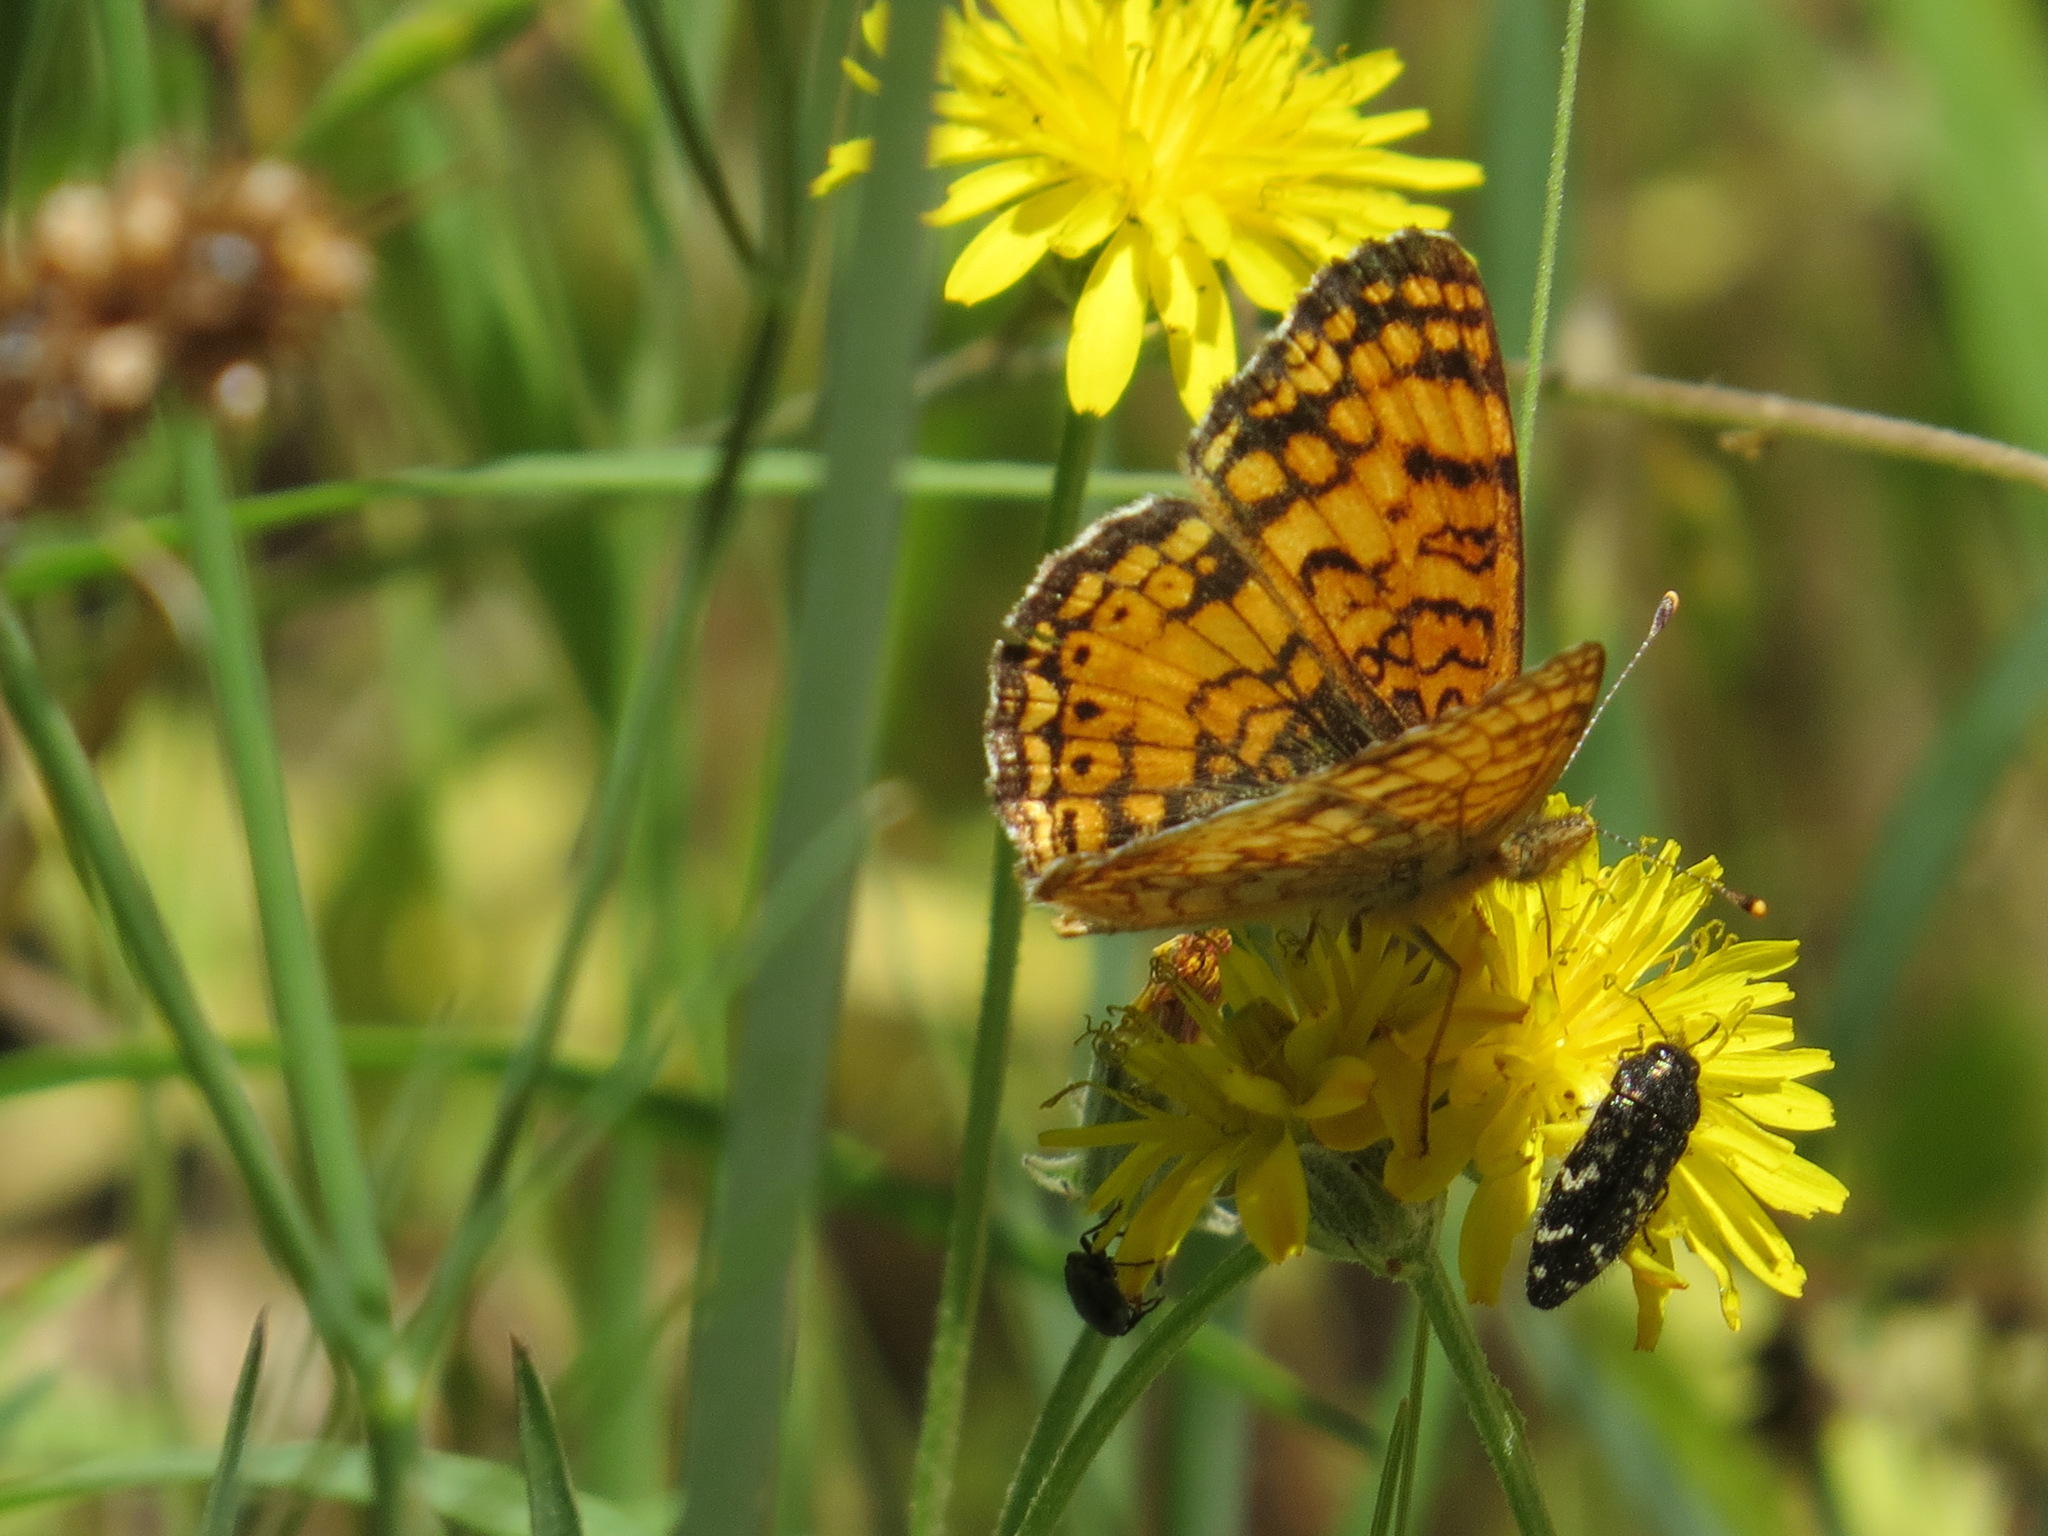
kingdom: Animalia
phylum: Arthropoda
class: Insecta
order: Lepidoptera
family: Nymphalidae
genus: Eresia
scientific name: Eresia aveyrona
